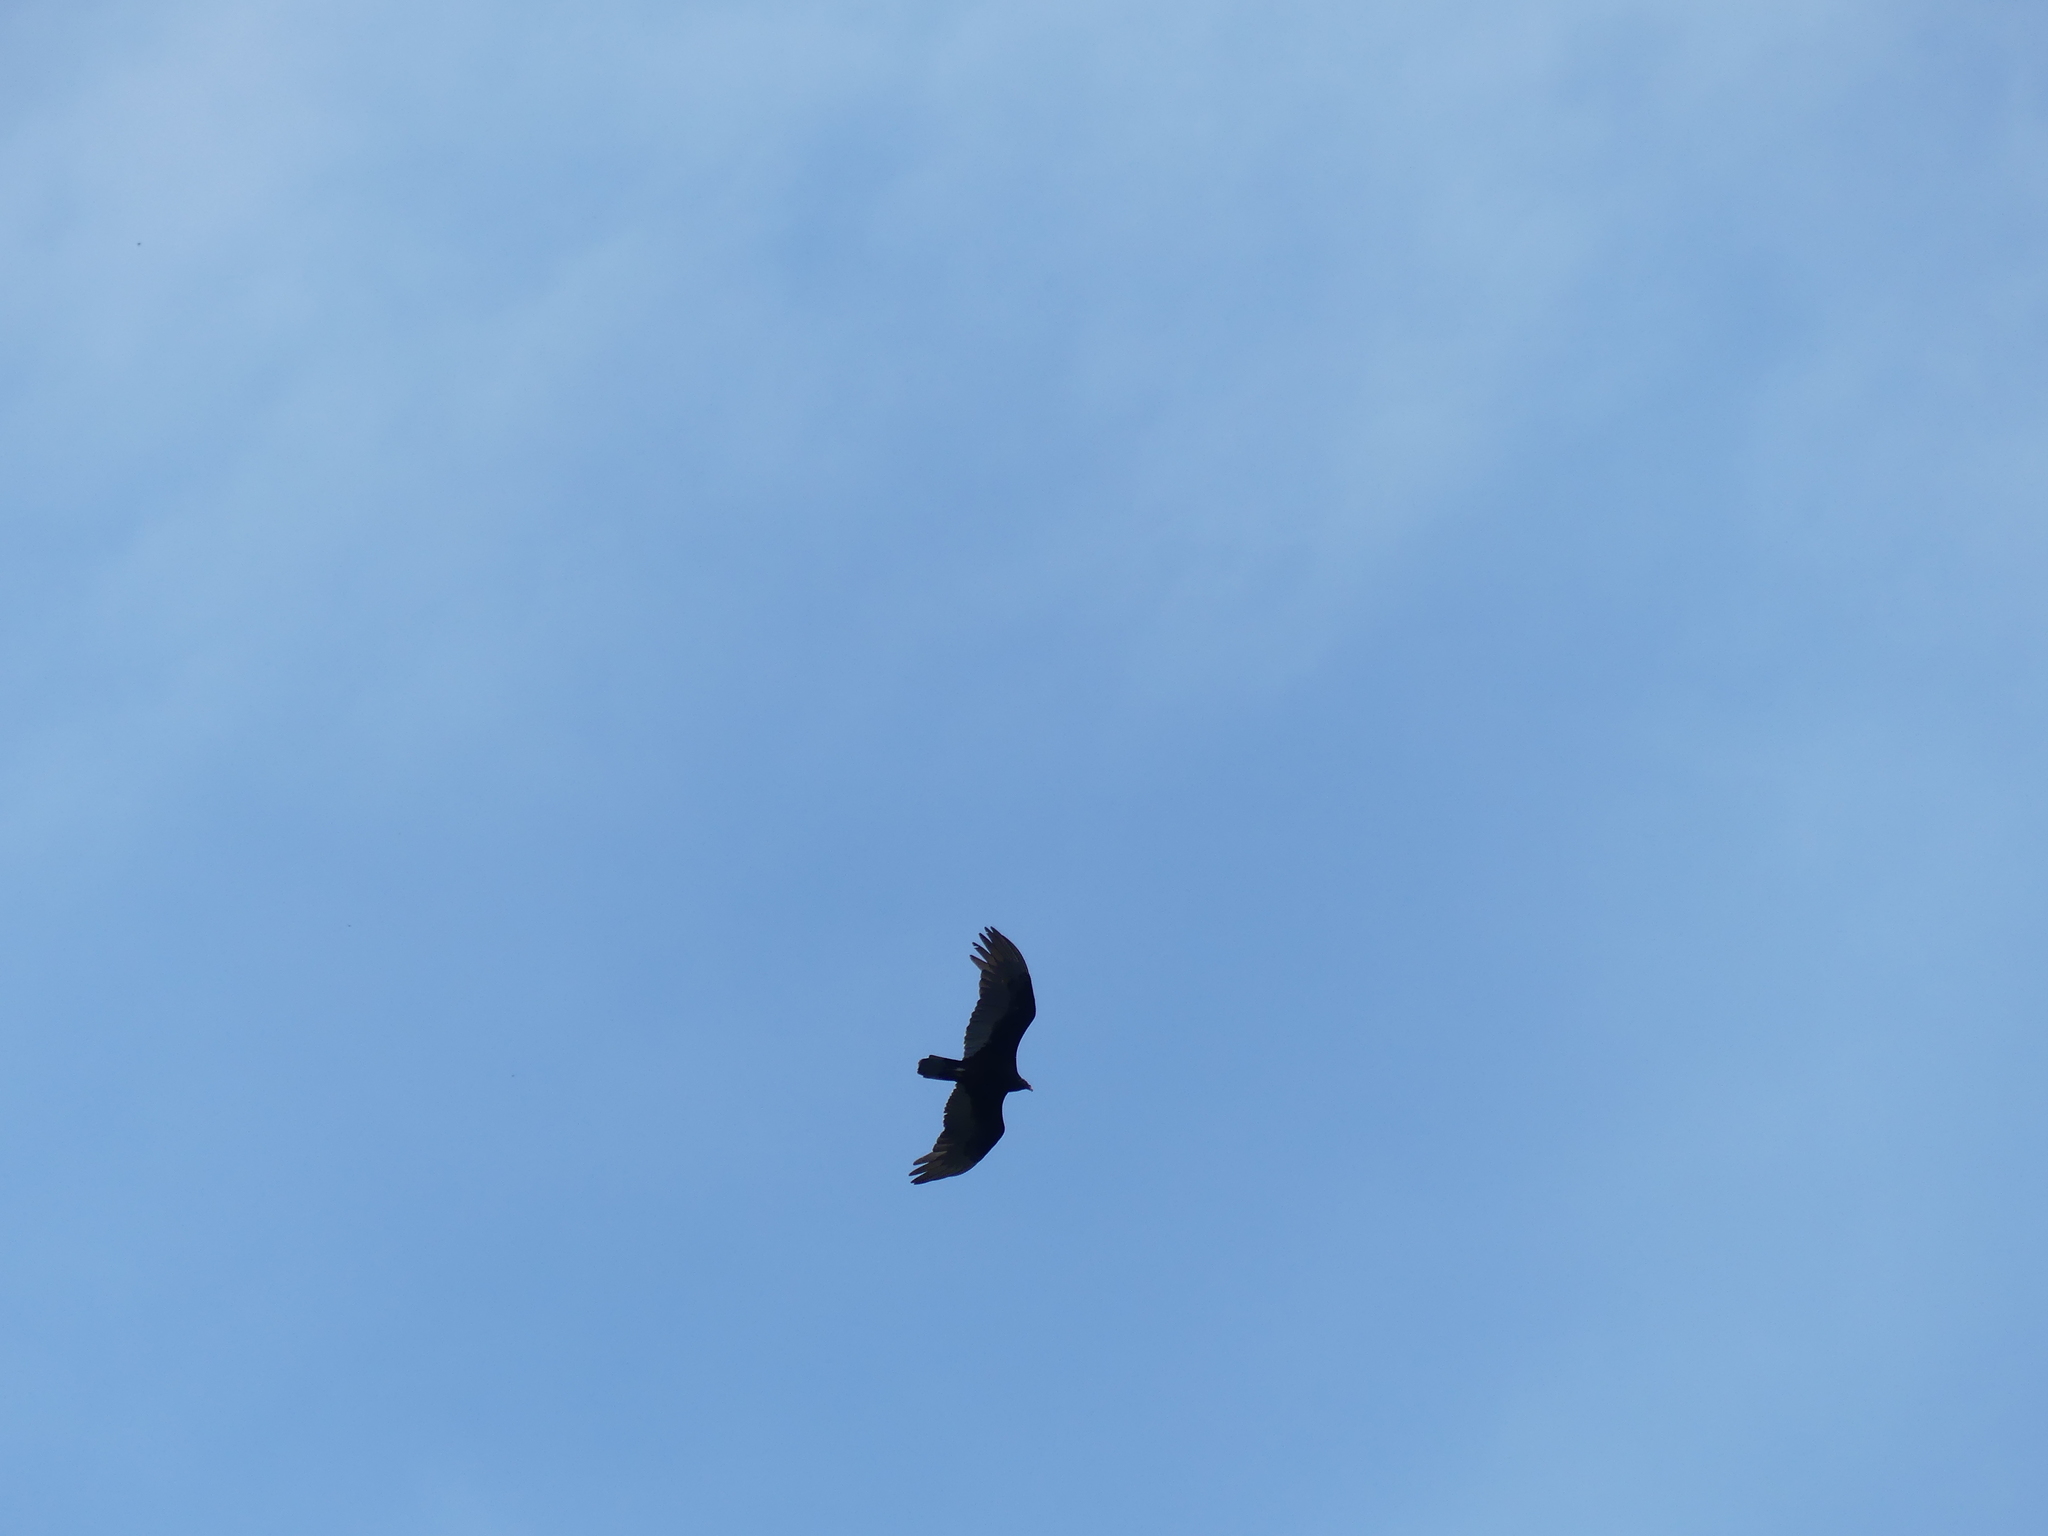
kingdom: Animalia
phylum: Chordata
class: Aves
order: Accipitriformes
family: Cathartidae
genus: Cathartes
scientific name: Cathartes aura
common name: Turkey vulture
